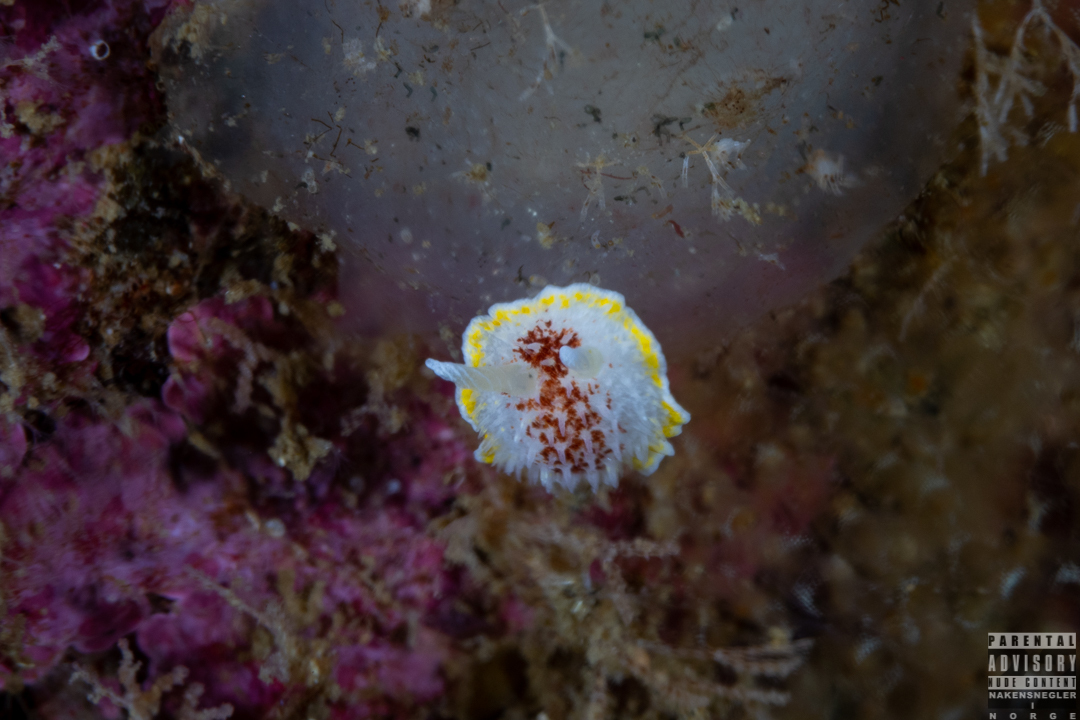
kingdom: Animalia
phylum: Mollusca
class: Gastropoda
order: Nudibranchia
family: Calycidorididae
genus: Diaphorodoris
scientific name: Diaphorodoris luteocincta
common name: Fried egg nudibranch
